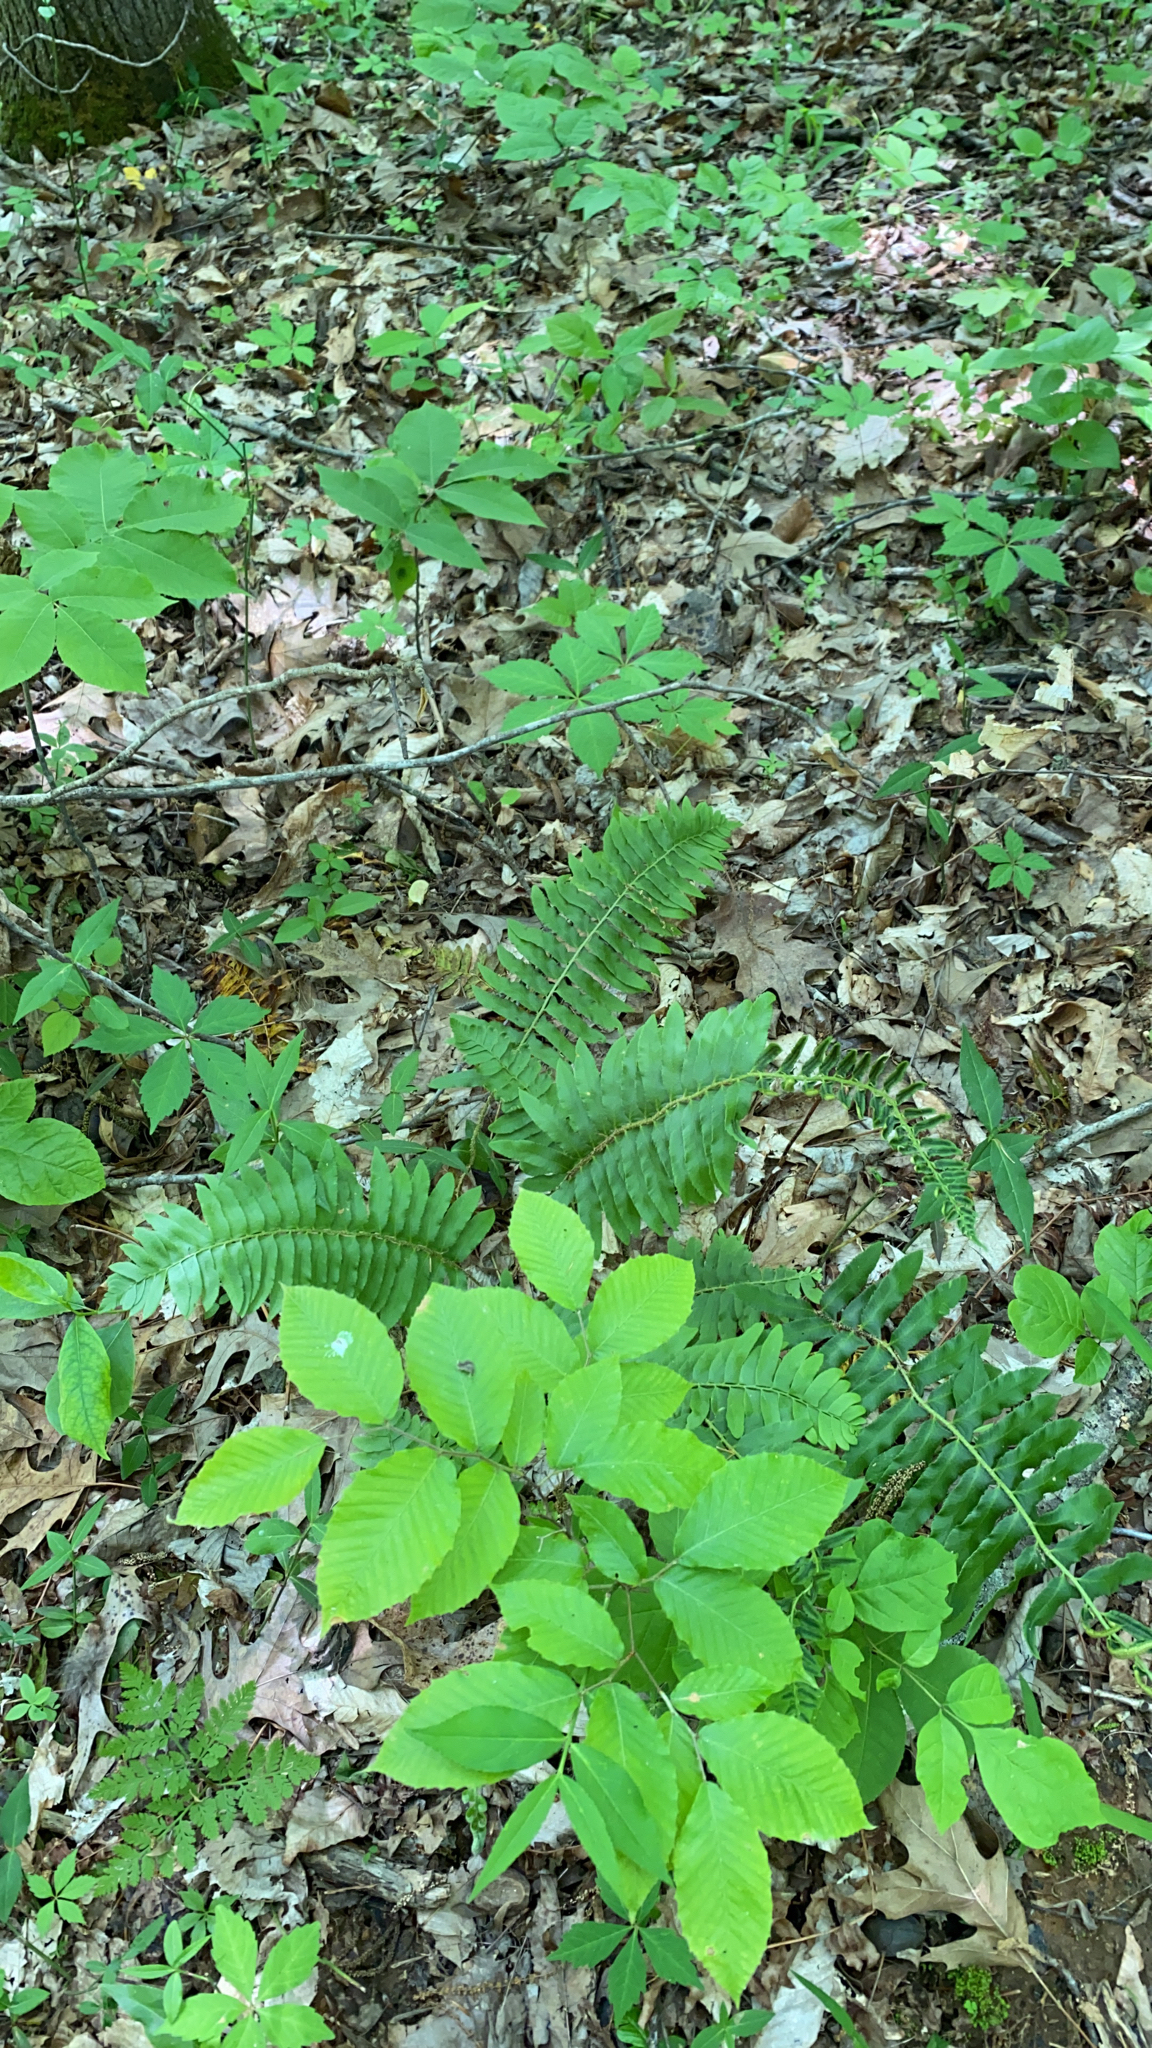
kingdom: Plantae
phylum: Tracheophyta
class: Polypodiopsida
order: Polypodiales
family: Dryopteridaceae
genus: Polystichum
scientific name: Polystichum acrostichoides
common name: Christmas fern
